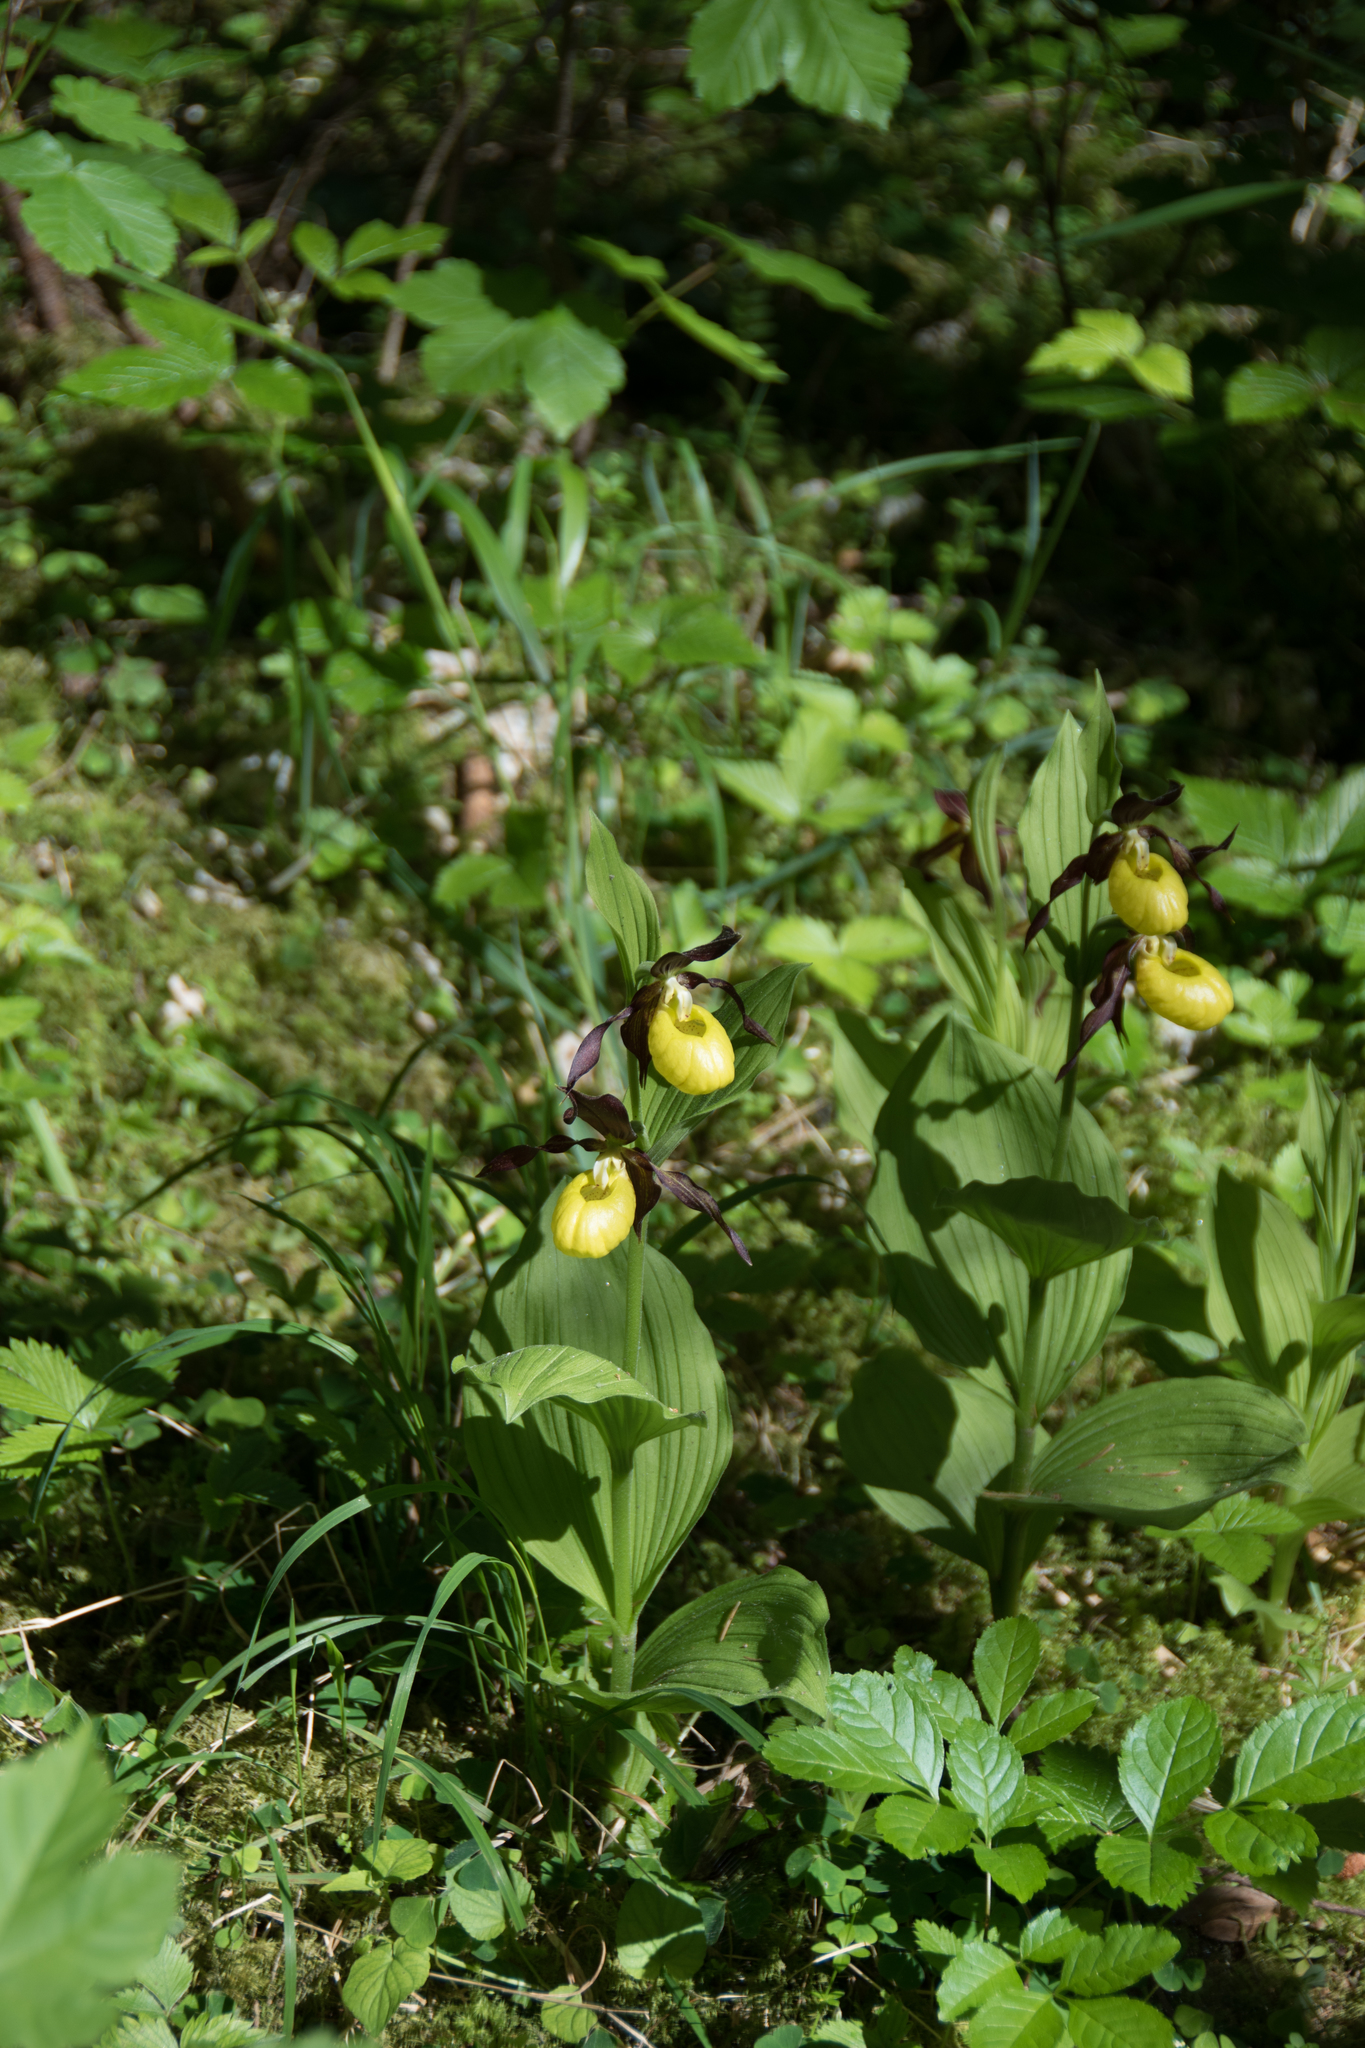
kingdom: Plantae
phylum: Tracheophyta
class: Liliopsida
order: Asparagales
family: Orchidaceae
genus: Cypripedium
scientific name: Cypripedium calceolus
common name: Lady's-slipper
